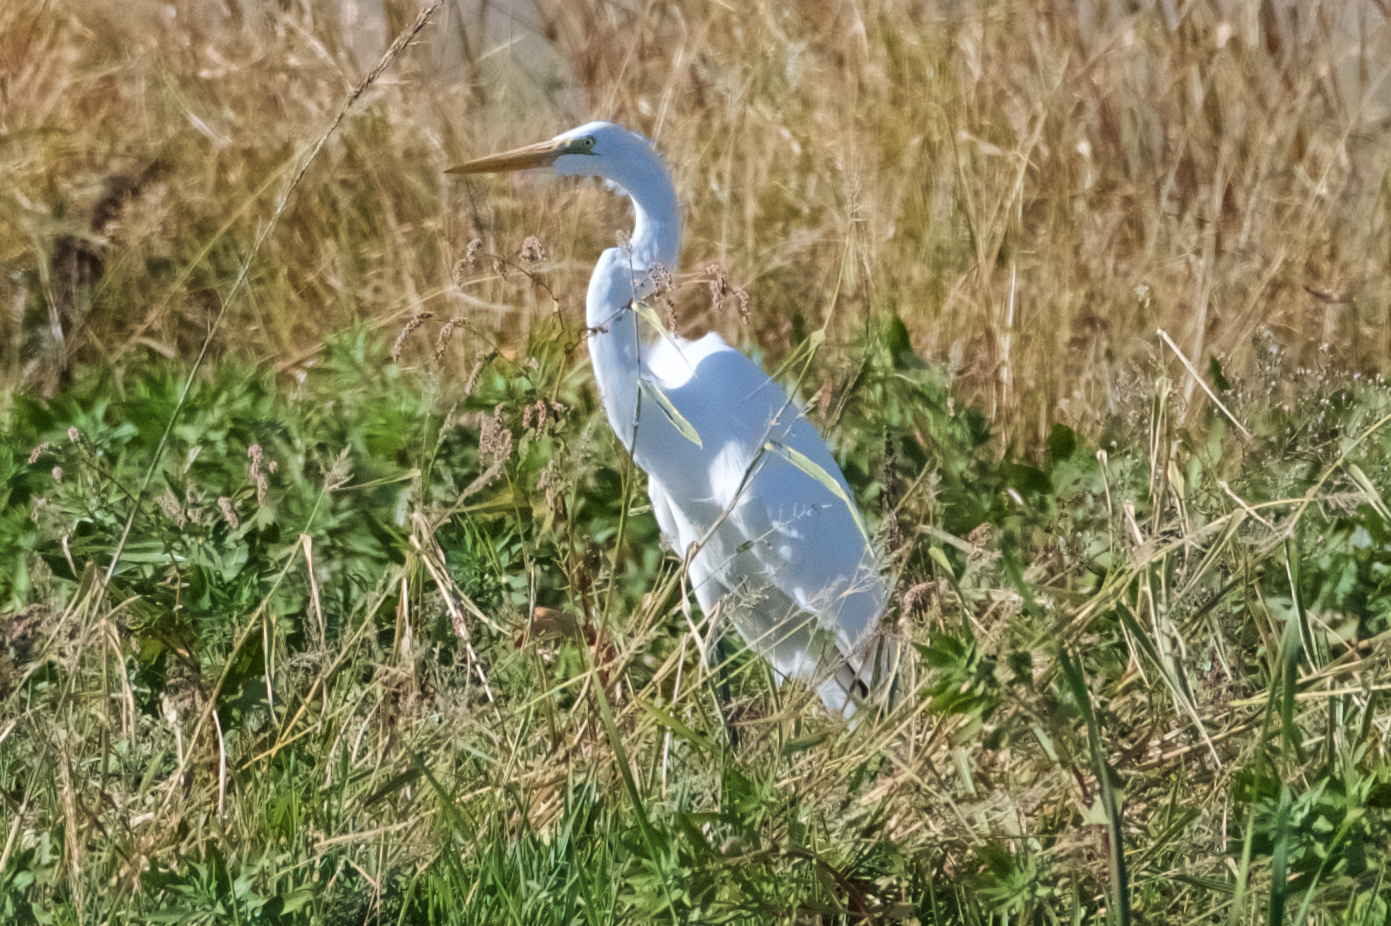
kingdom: Animalia
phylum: Chordata
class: Aves
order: Pelecaniformes
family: Ardeidae
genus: Ardea
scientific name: Ardea alba
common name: Great egret
